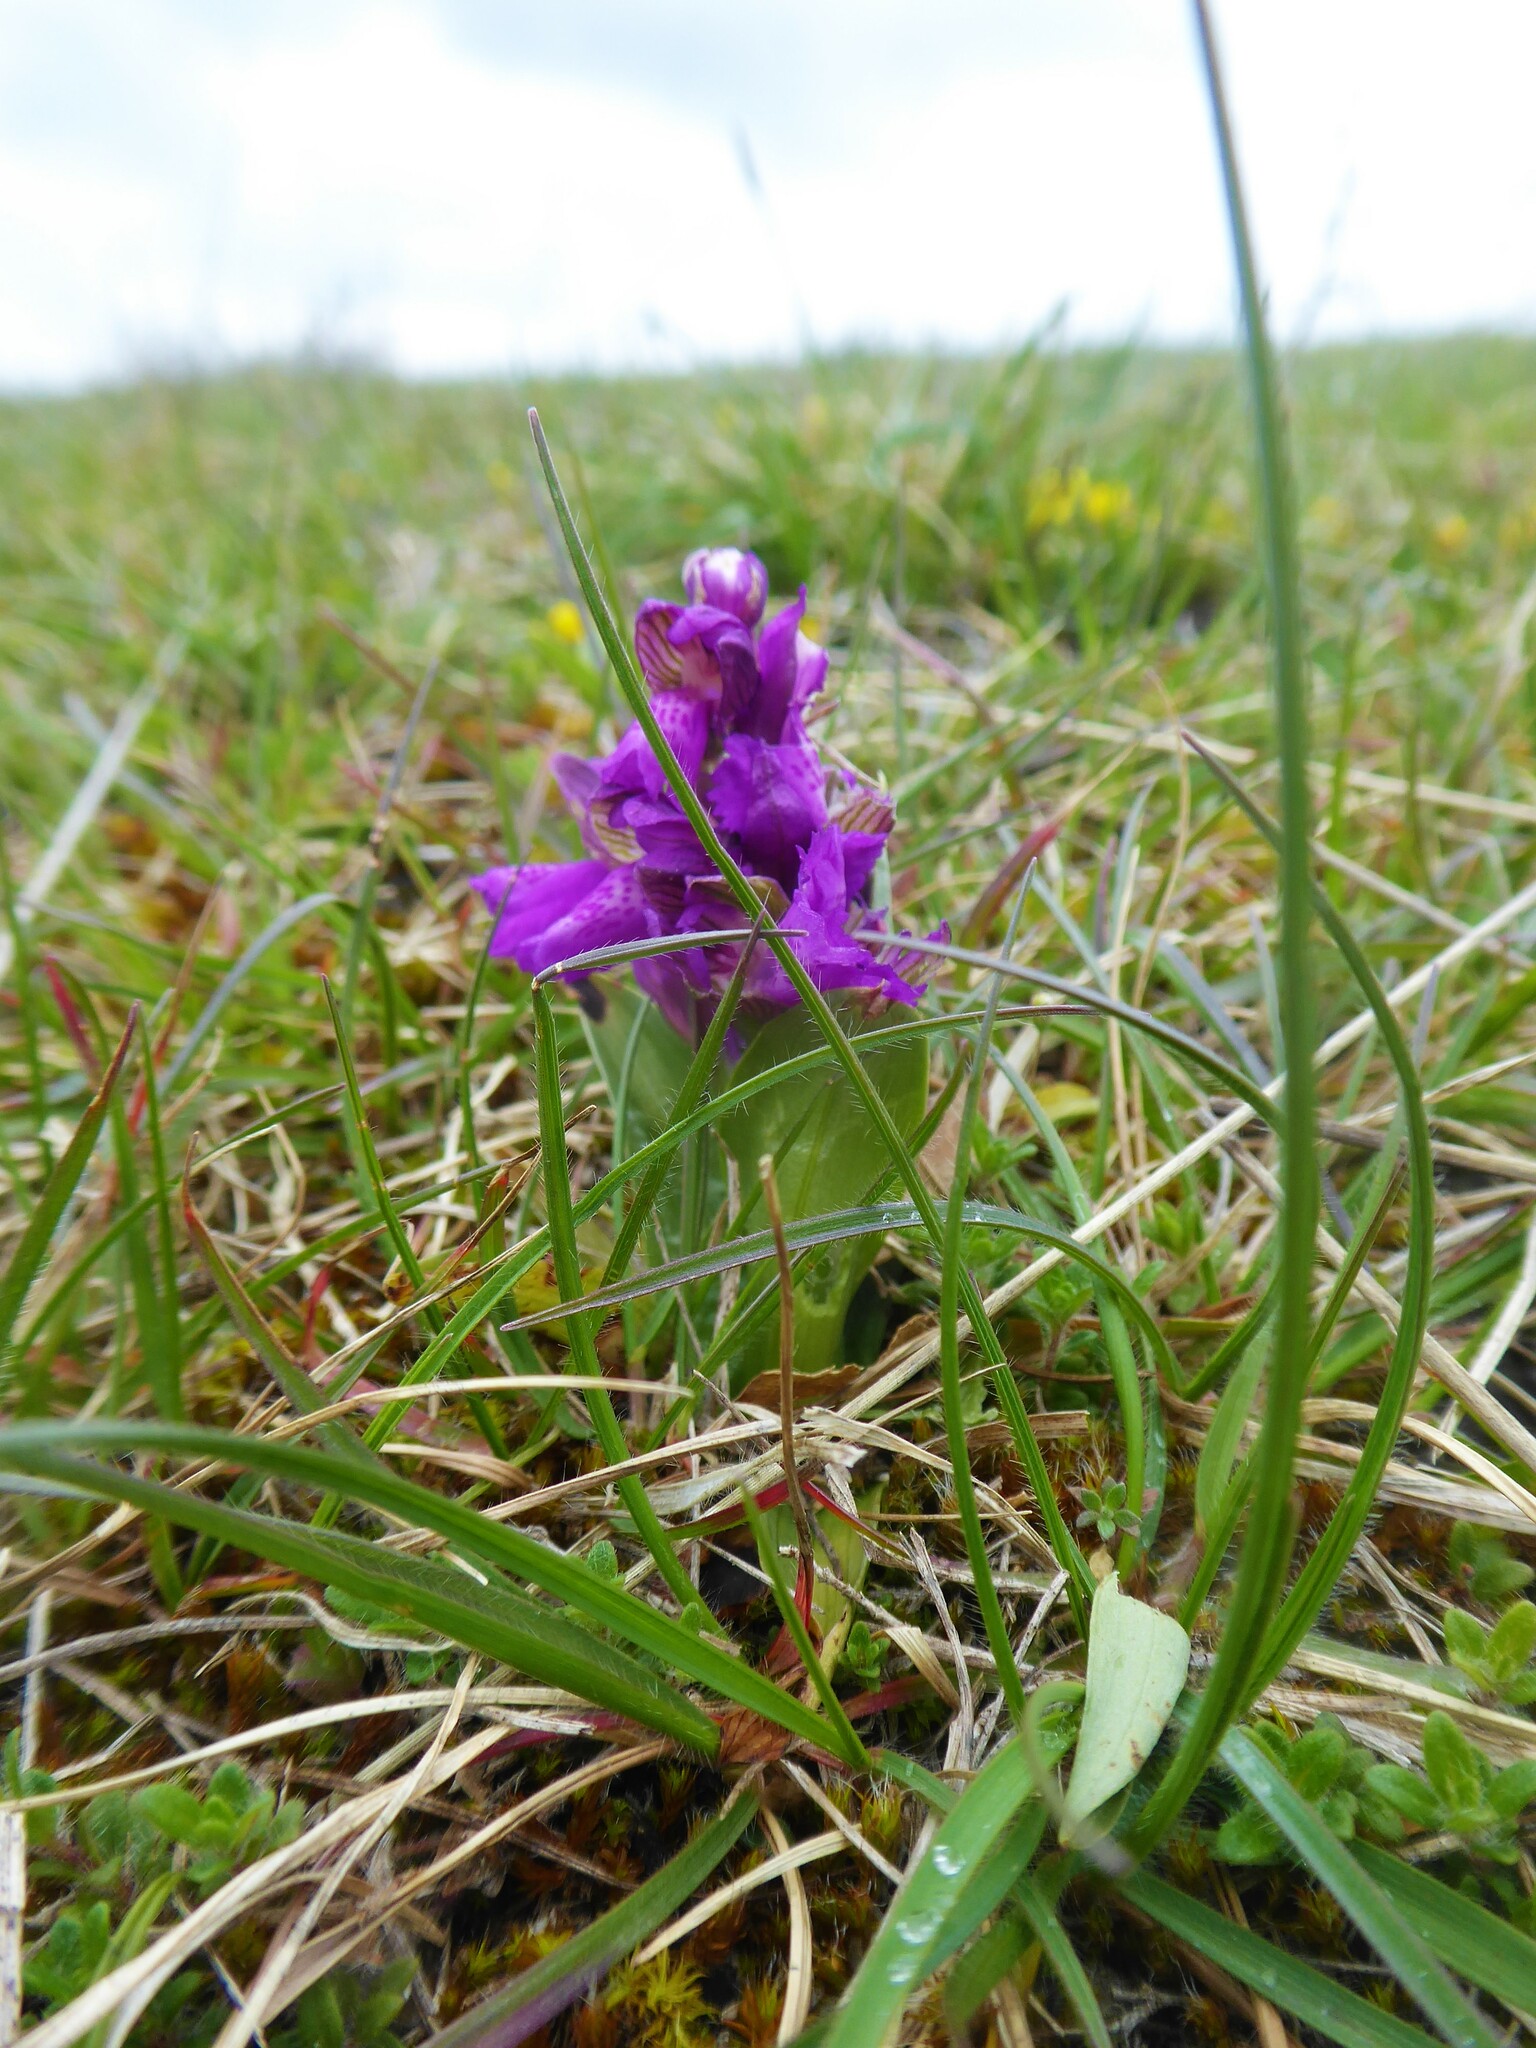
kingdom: Plantae
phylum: Tracheophyta
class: Liliopsida
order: Asparagales
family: Orchidaceae
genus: Anacamptis
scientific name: Anacamptis morio
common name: Green-winged orchid
